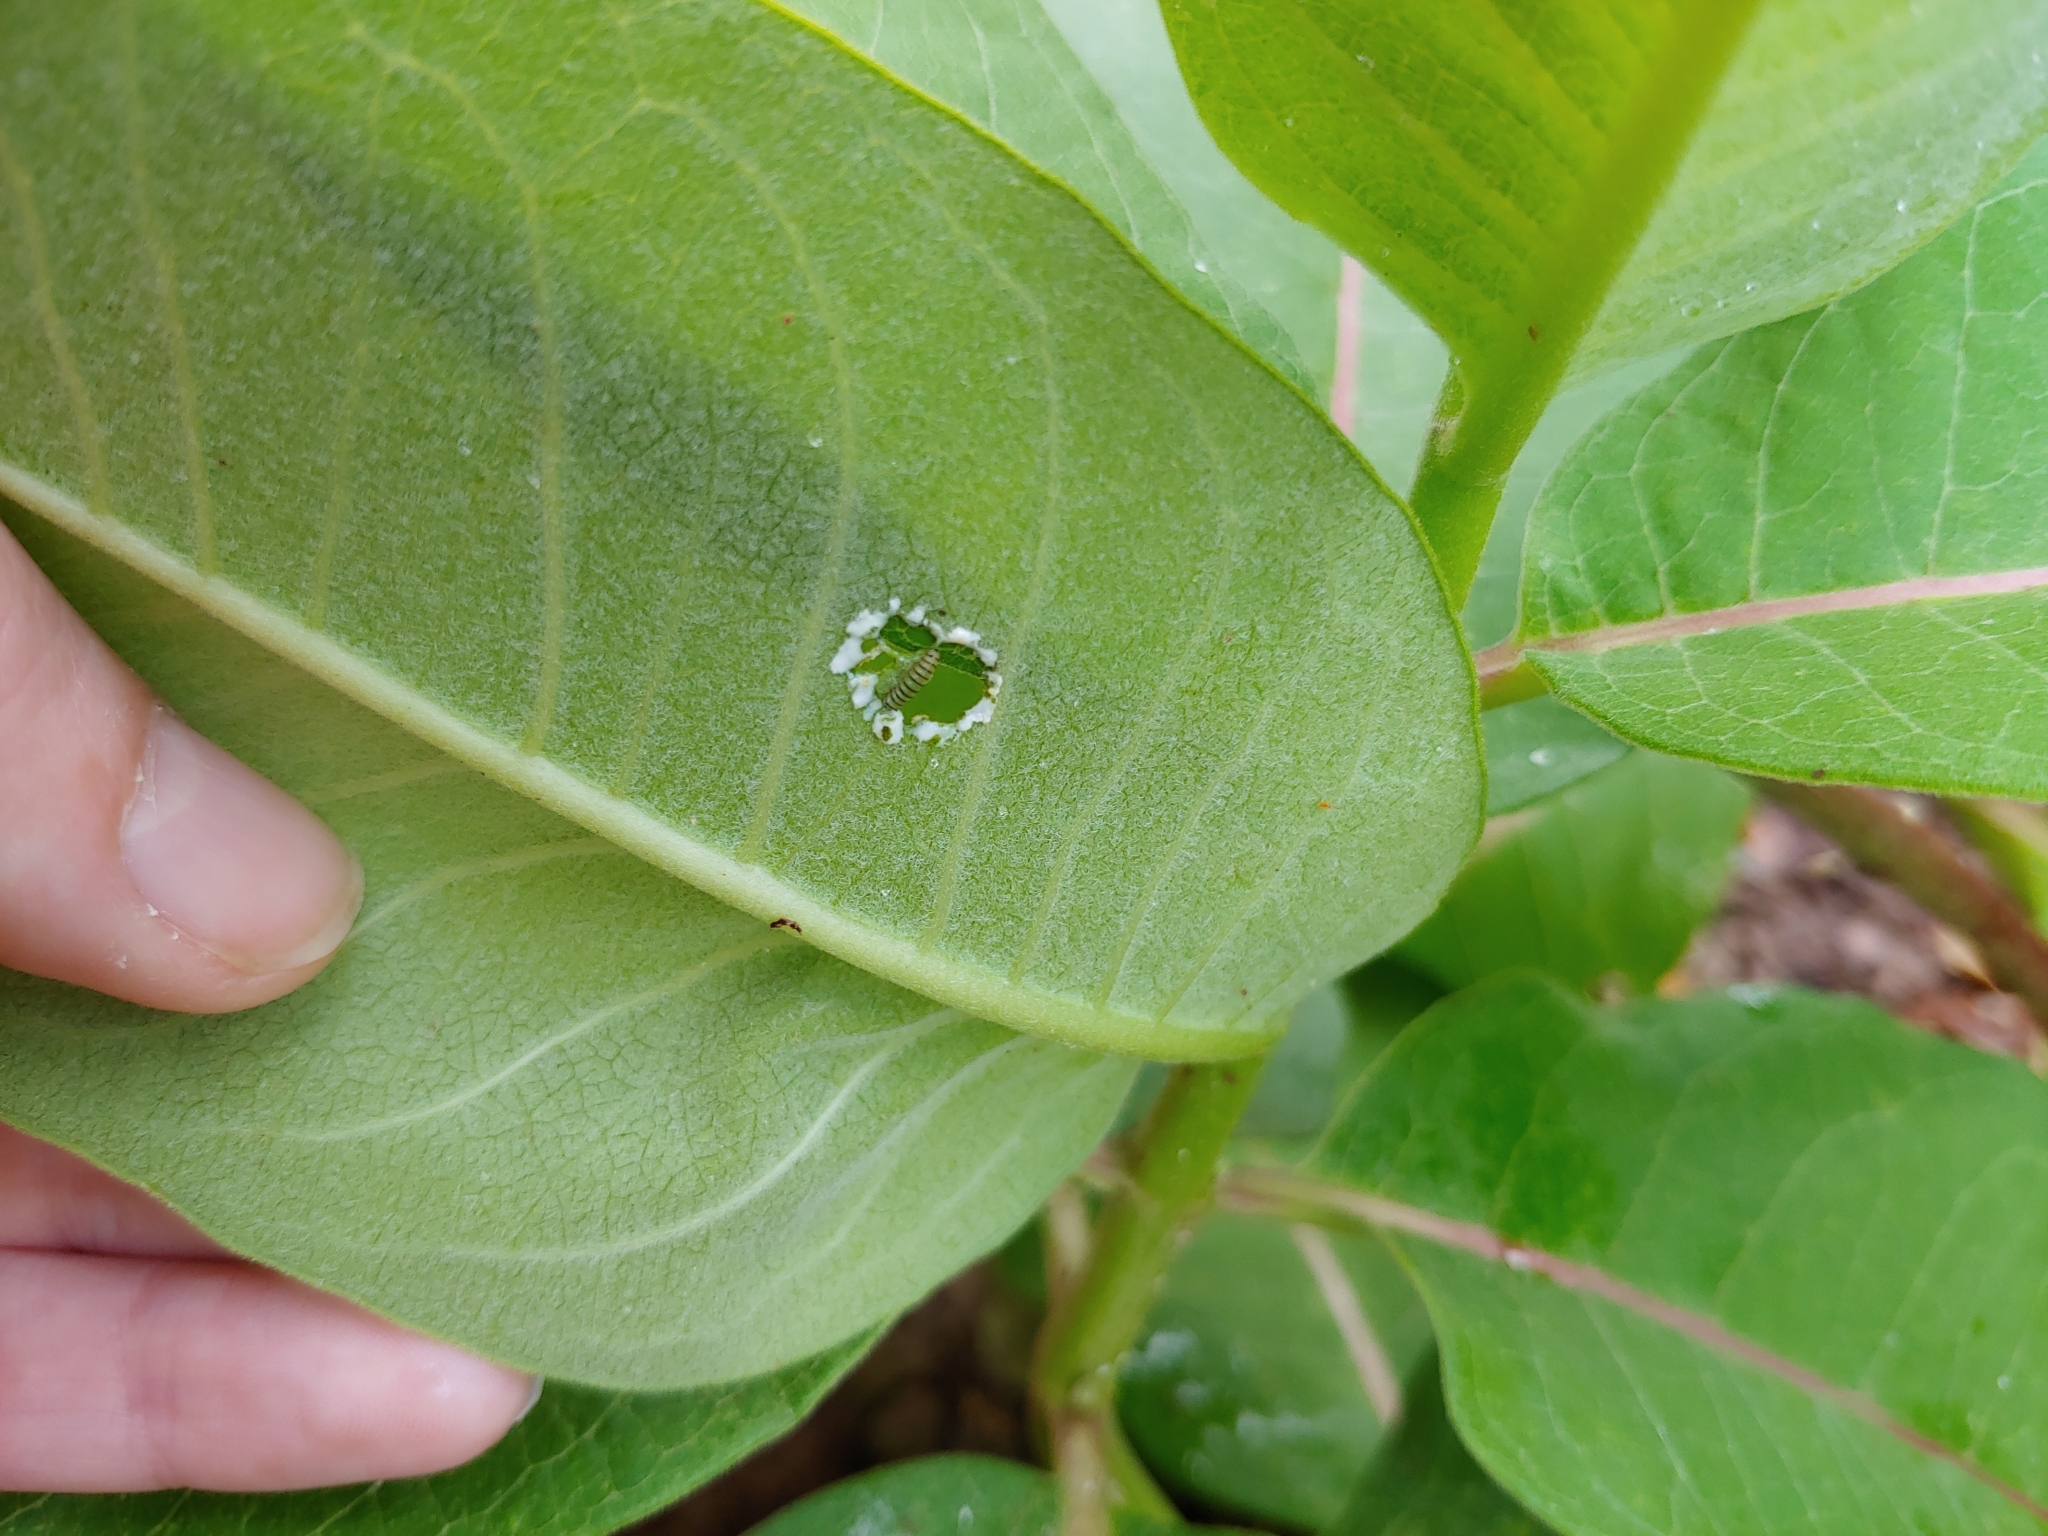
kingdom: Animalia
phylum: Arthropoda
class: Insecta
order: Lepidoptera
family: Nymphalidae
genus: Danaus
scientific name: Danaus plexippus
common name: Monarch
